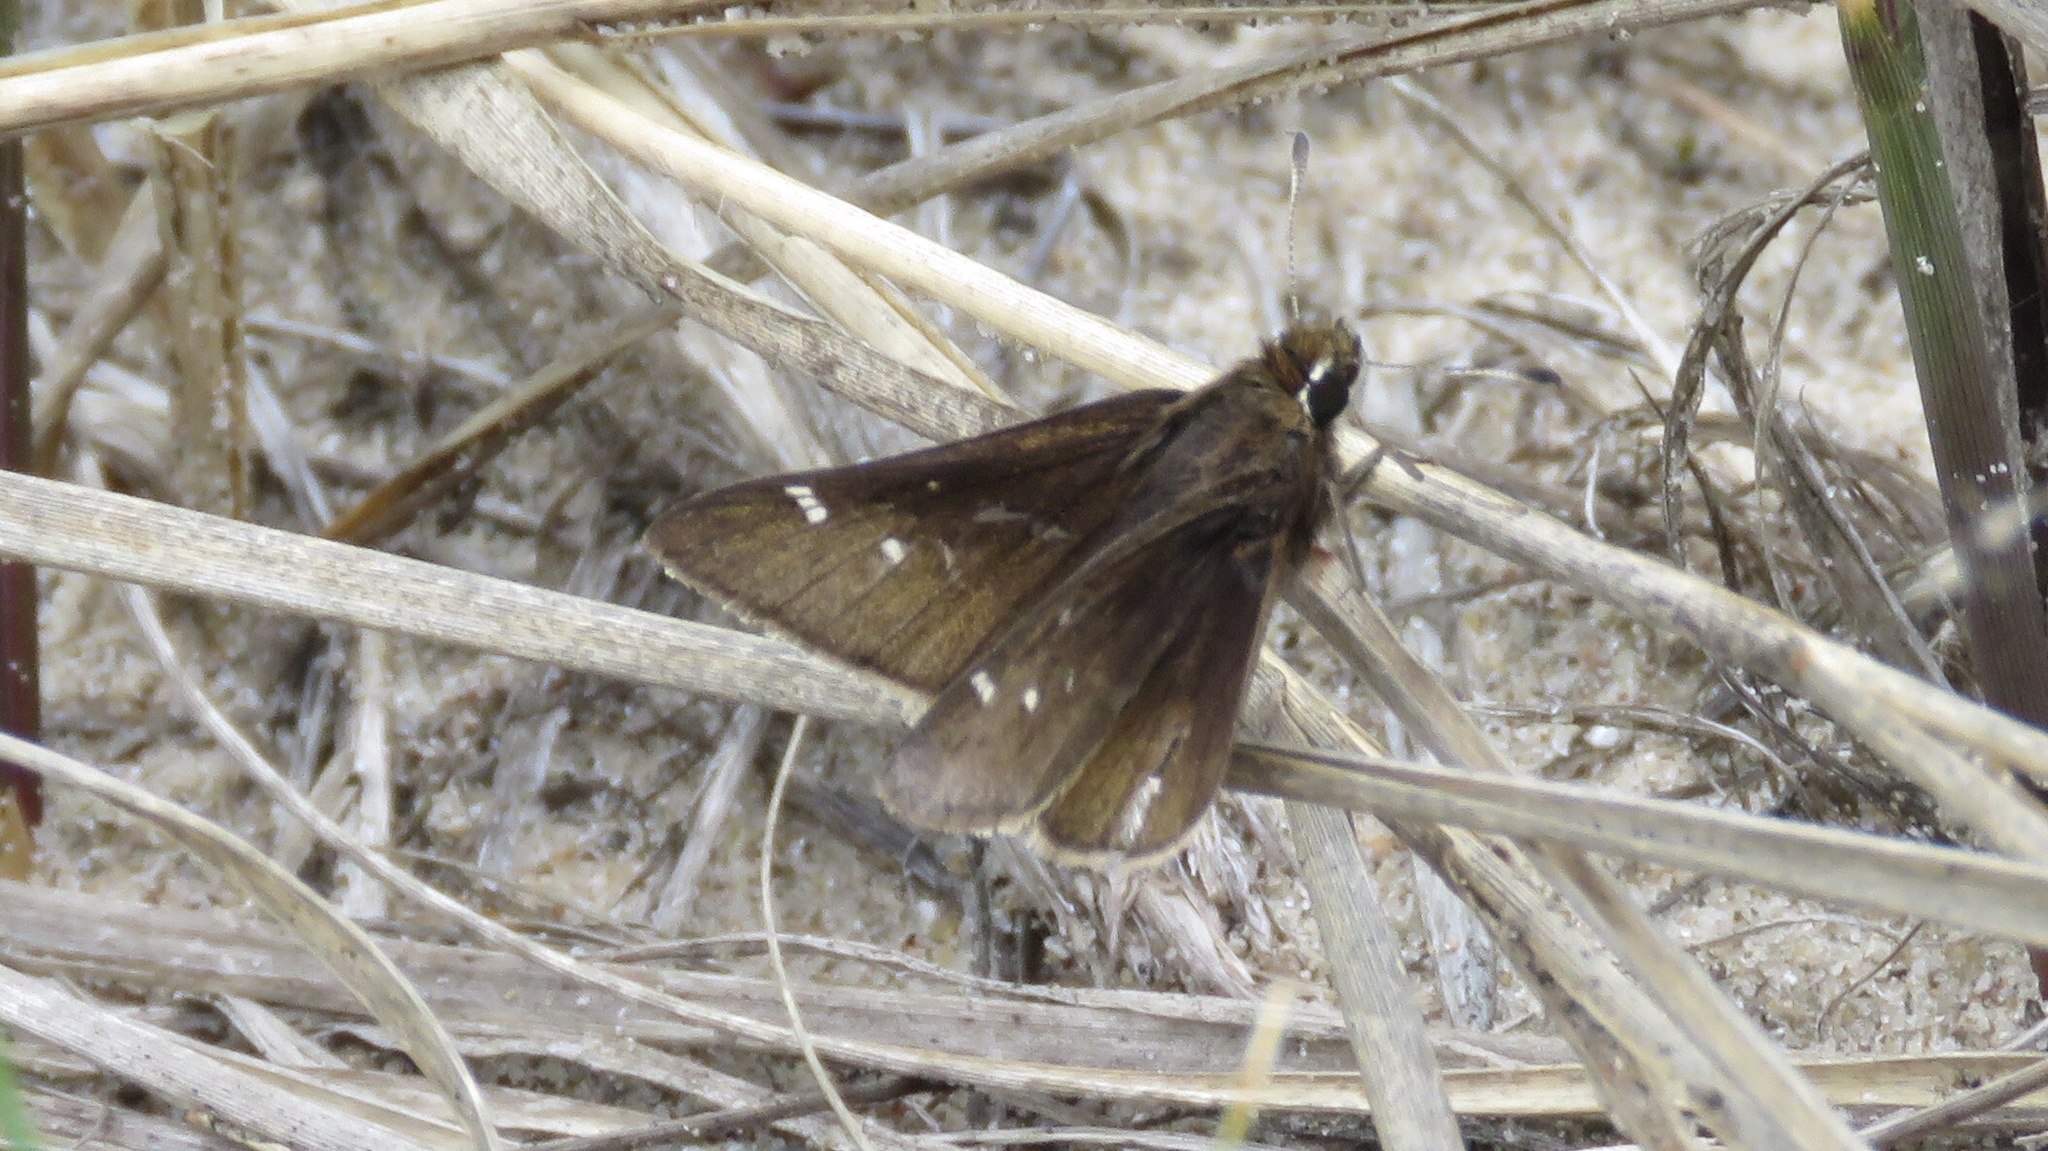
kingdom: Animalia
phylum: Arthropoda
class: Insecta
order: Lepidoptera
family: Hesperiidae
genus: Atrytonopsis
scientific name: Atrytonopsis hianna
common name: Dusted skipper
